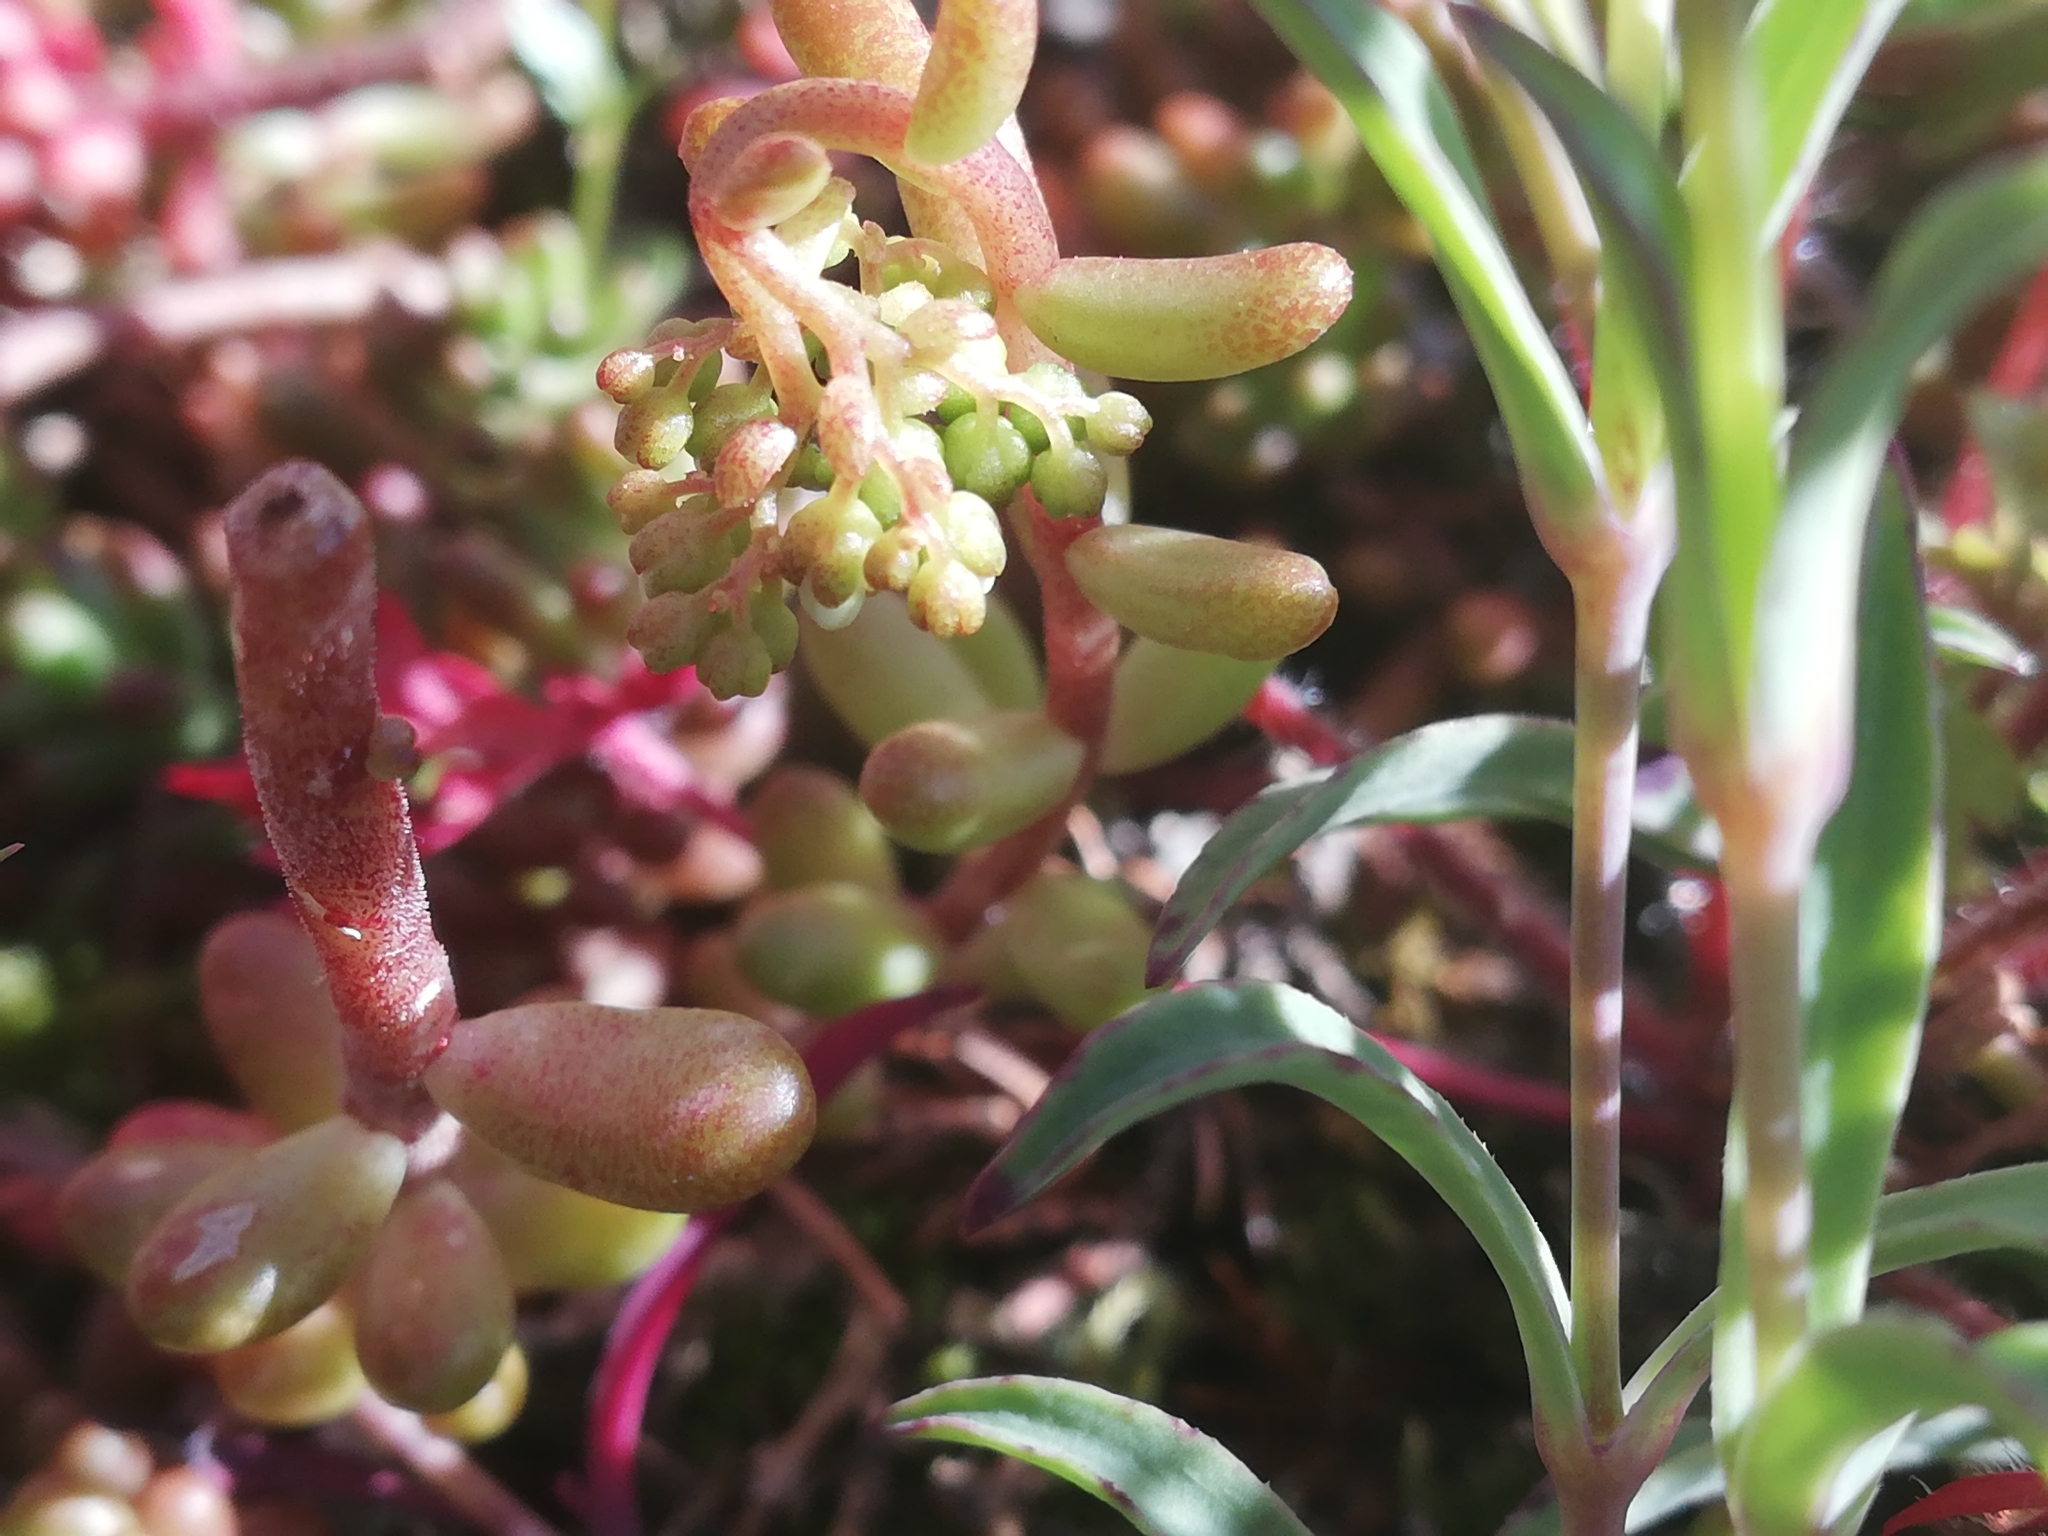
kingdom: Plantae
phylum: Tracheophyta
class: Magnoliopsida
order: Saxifragales
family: Crassulaceae
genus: Sedum
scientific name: Sedum album
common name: White stonecrop
